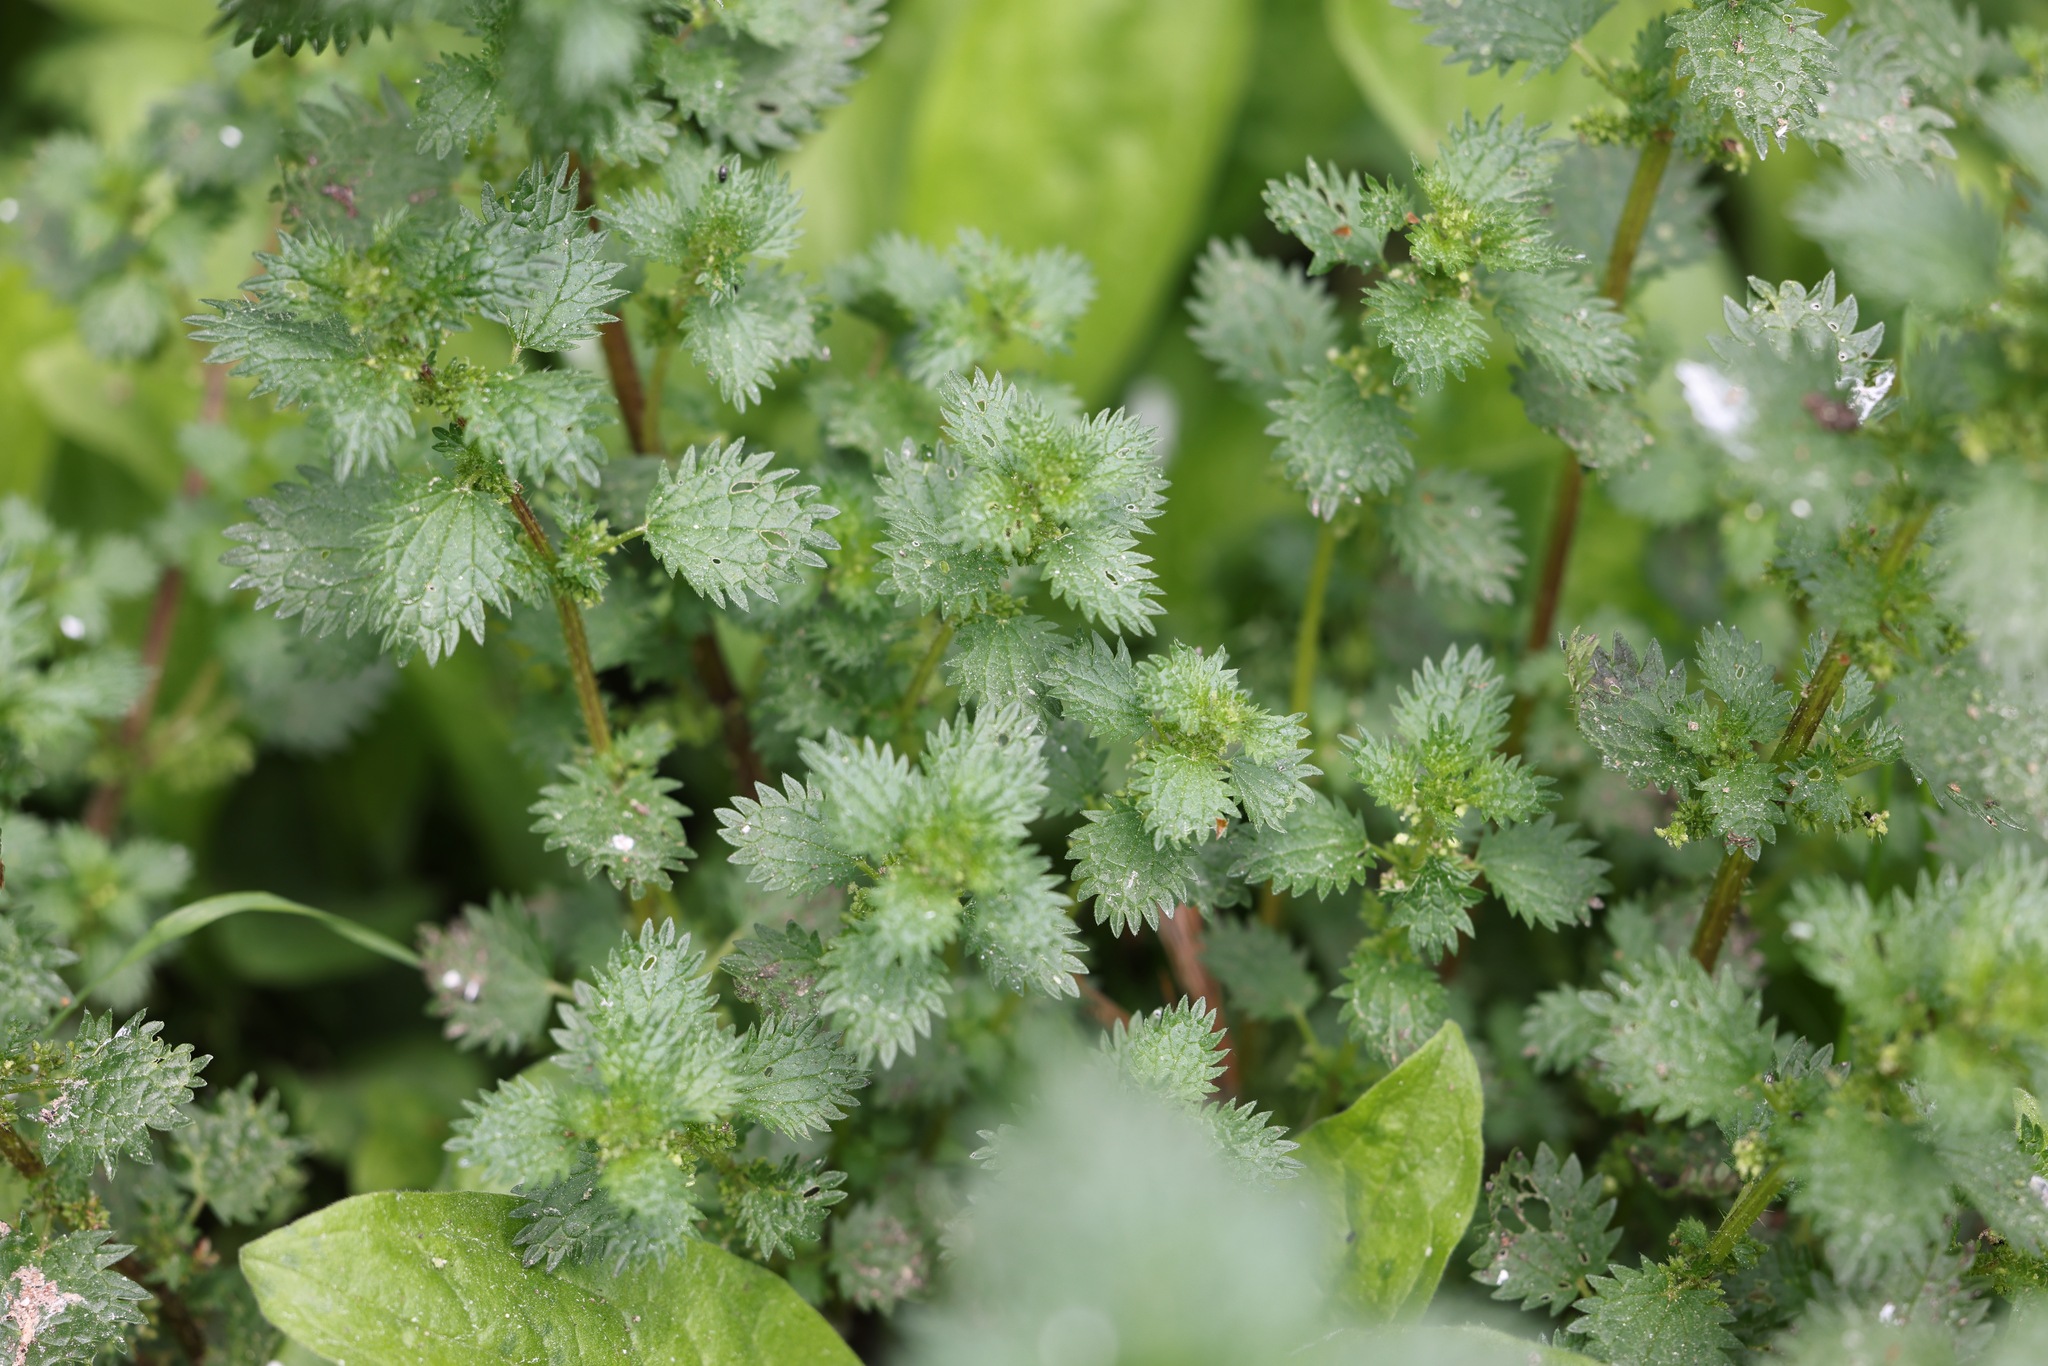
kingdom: Plantae
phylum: Tracheophyta
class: Magnoliopsida
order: Rosales
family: Urticaceae
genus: Urtica
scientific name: Urtica urens
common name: Dwarf nettle
